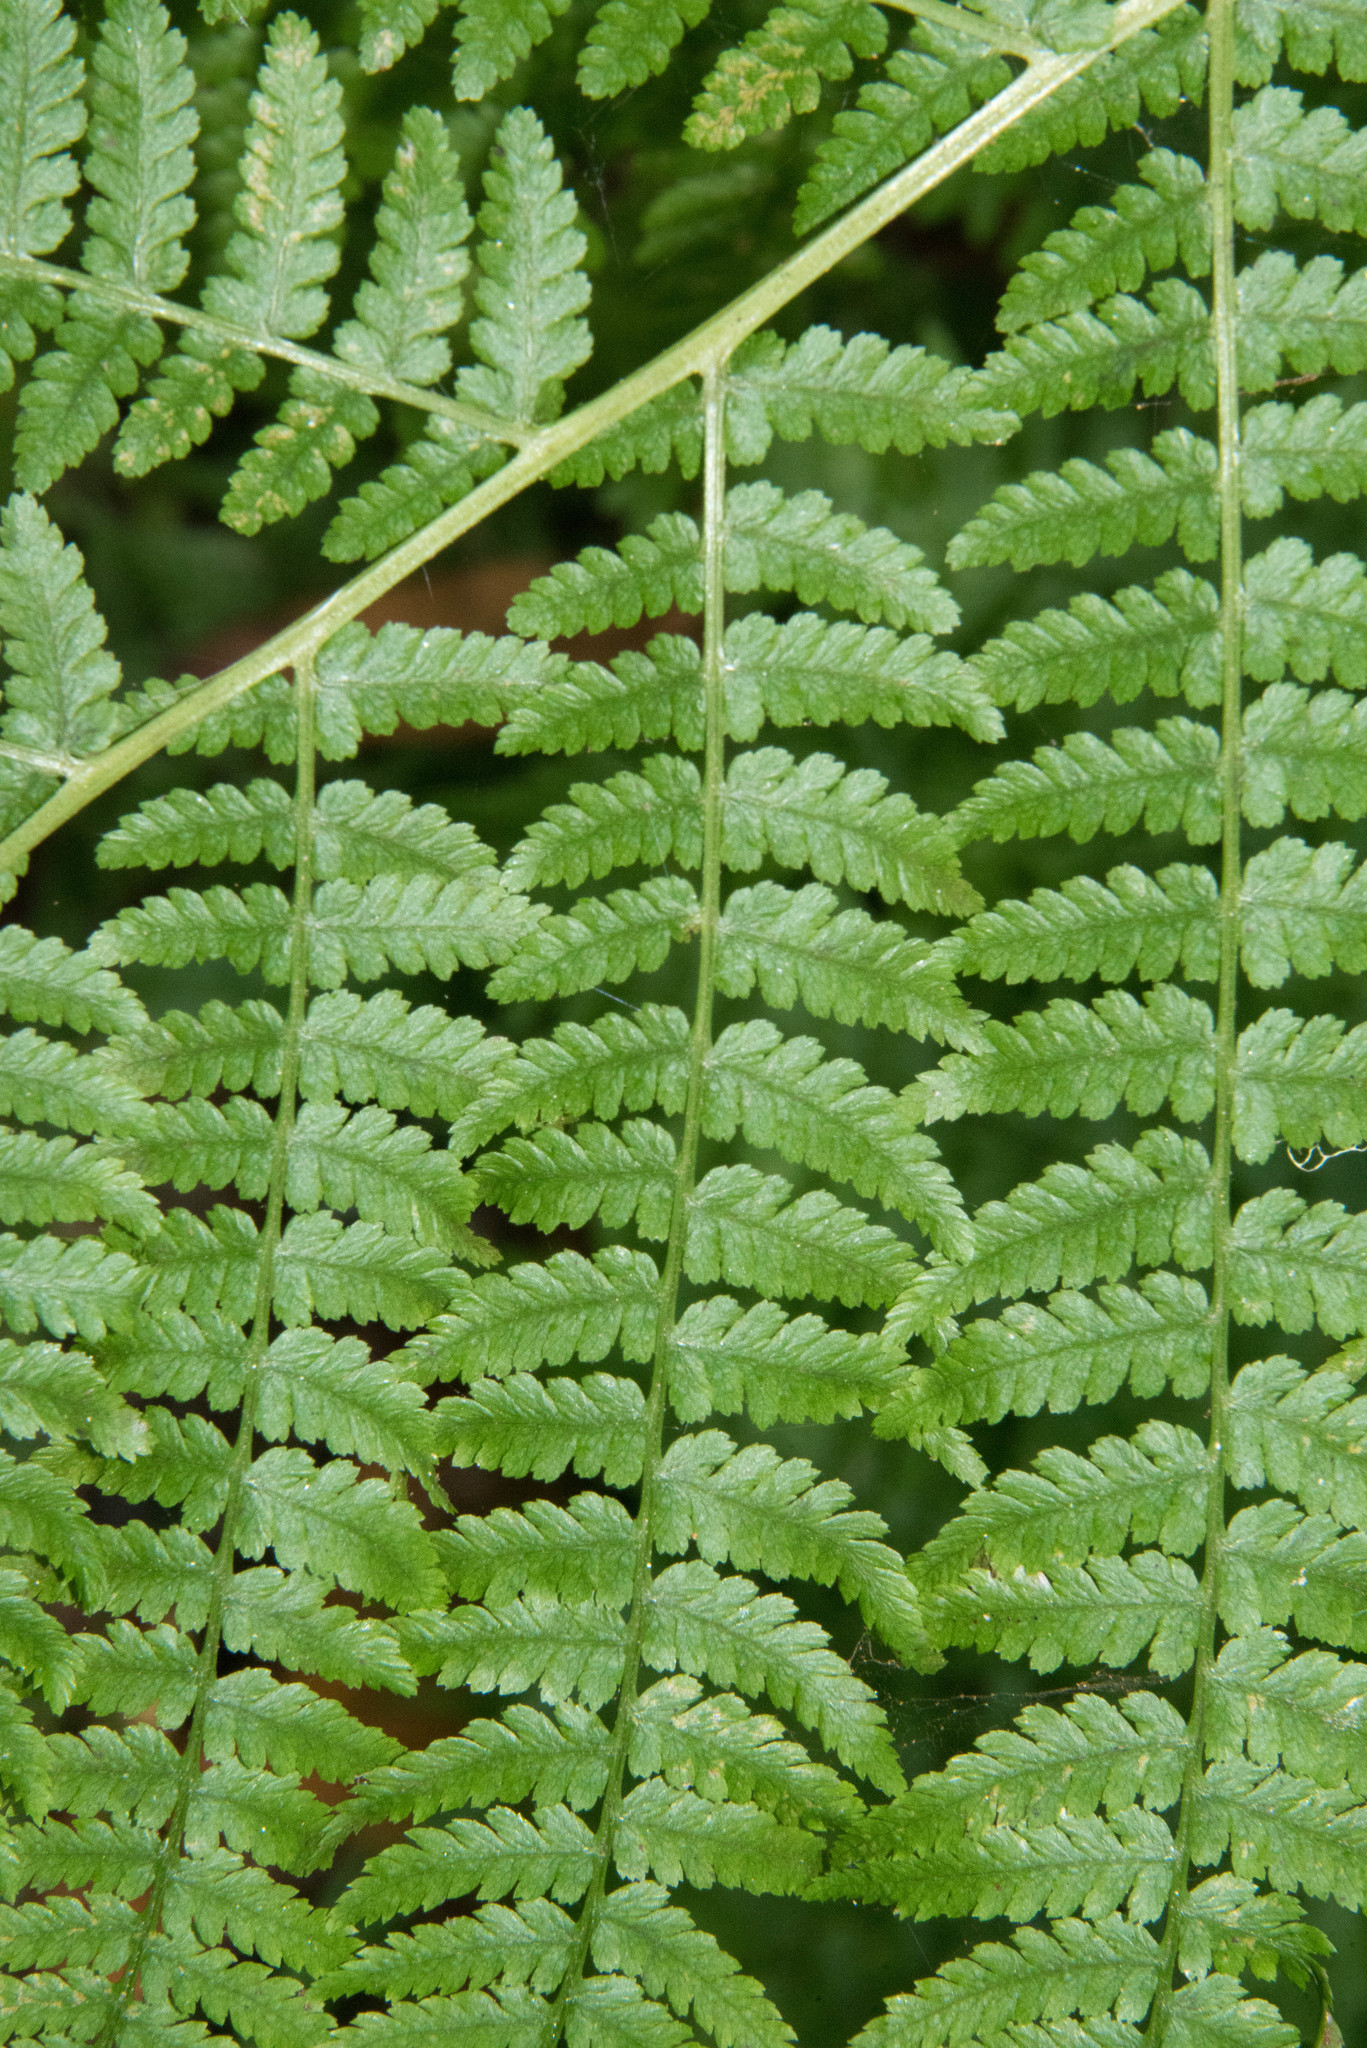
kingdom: Plantae
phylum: Tracheophyta
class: Polypodiopsida
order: Polypodiales
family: Athyriaceae
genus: Athyrium
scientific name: Athyrium filix-femina
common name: Lady fern
